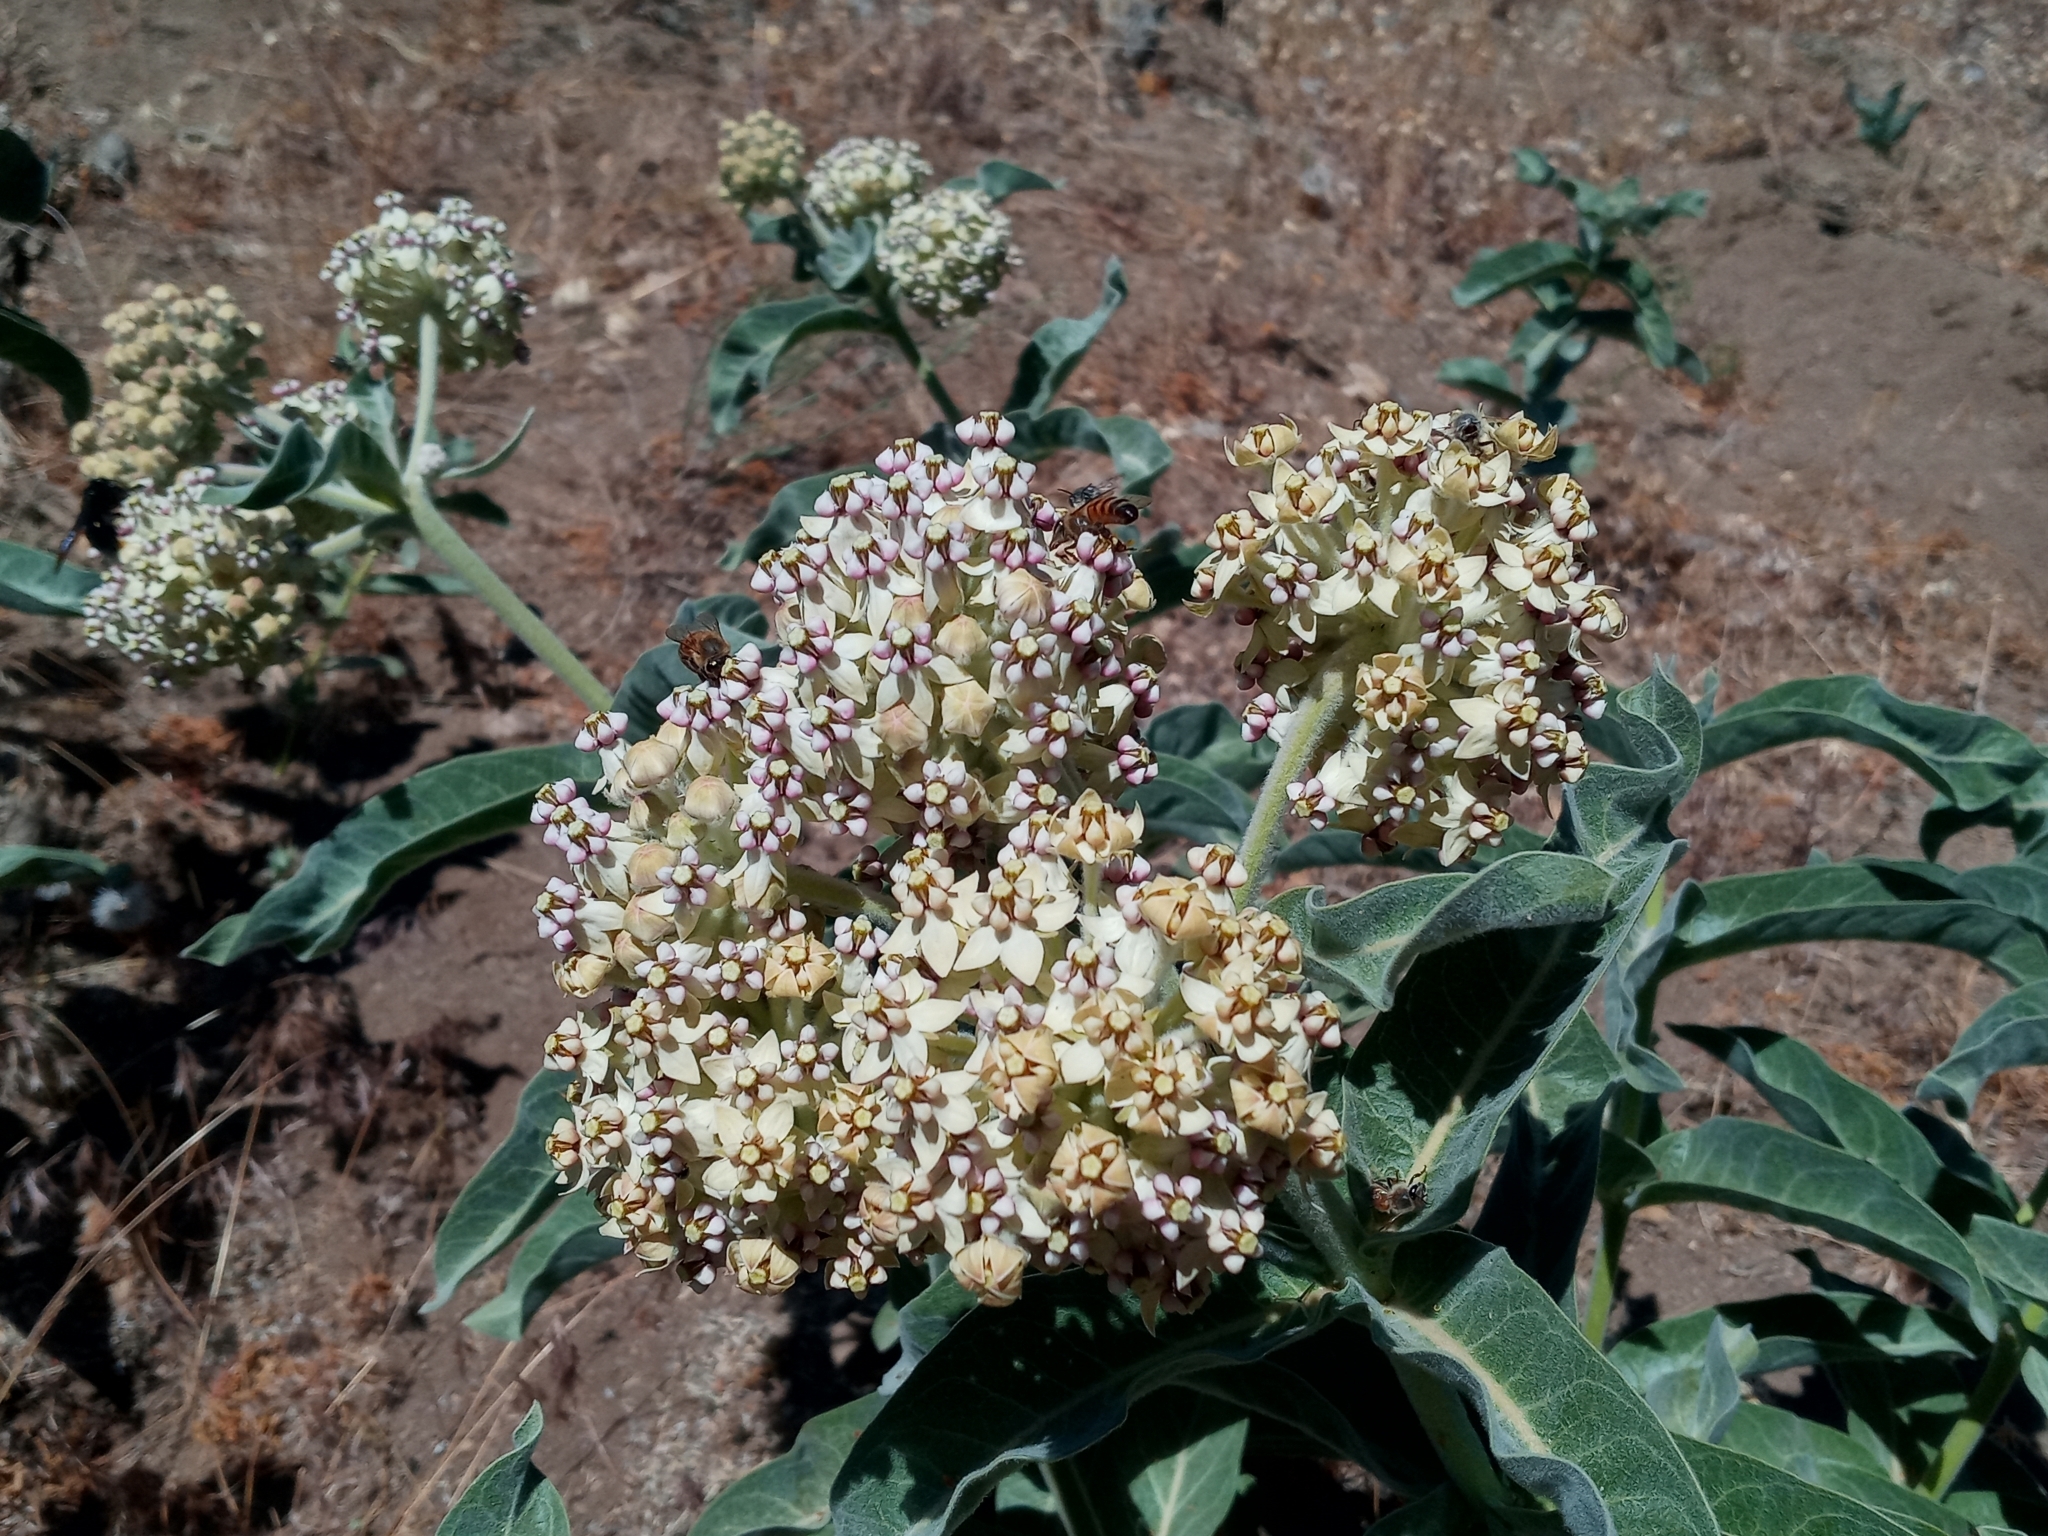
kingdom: Plantae
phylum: Tracheophyta
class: Magnoliopsida
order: Gentianales
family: Apocynaceae
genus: Asclepias
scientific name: Asclepias eriocarpa
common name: Indian milkweed
